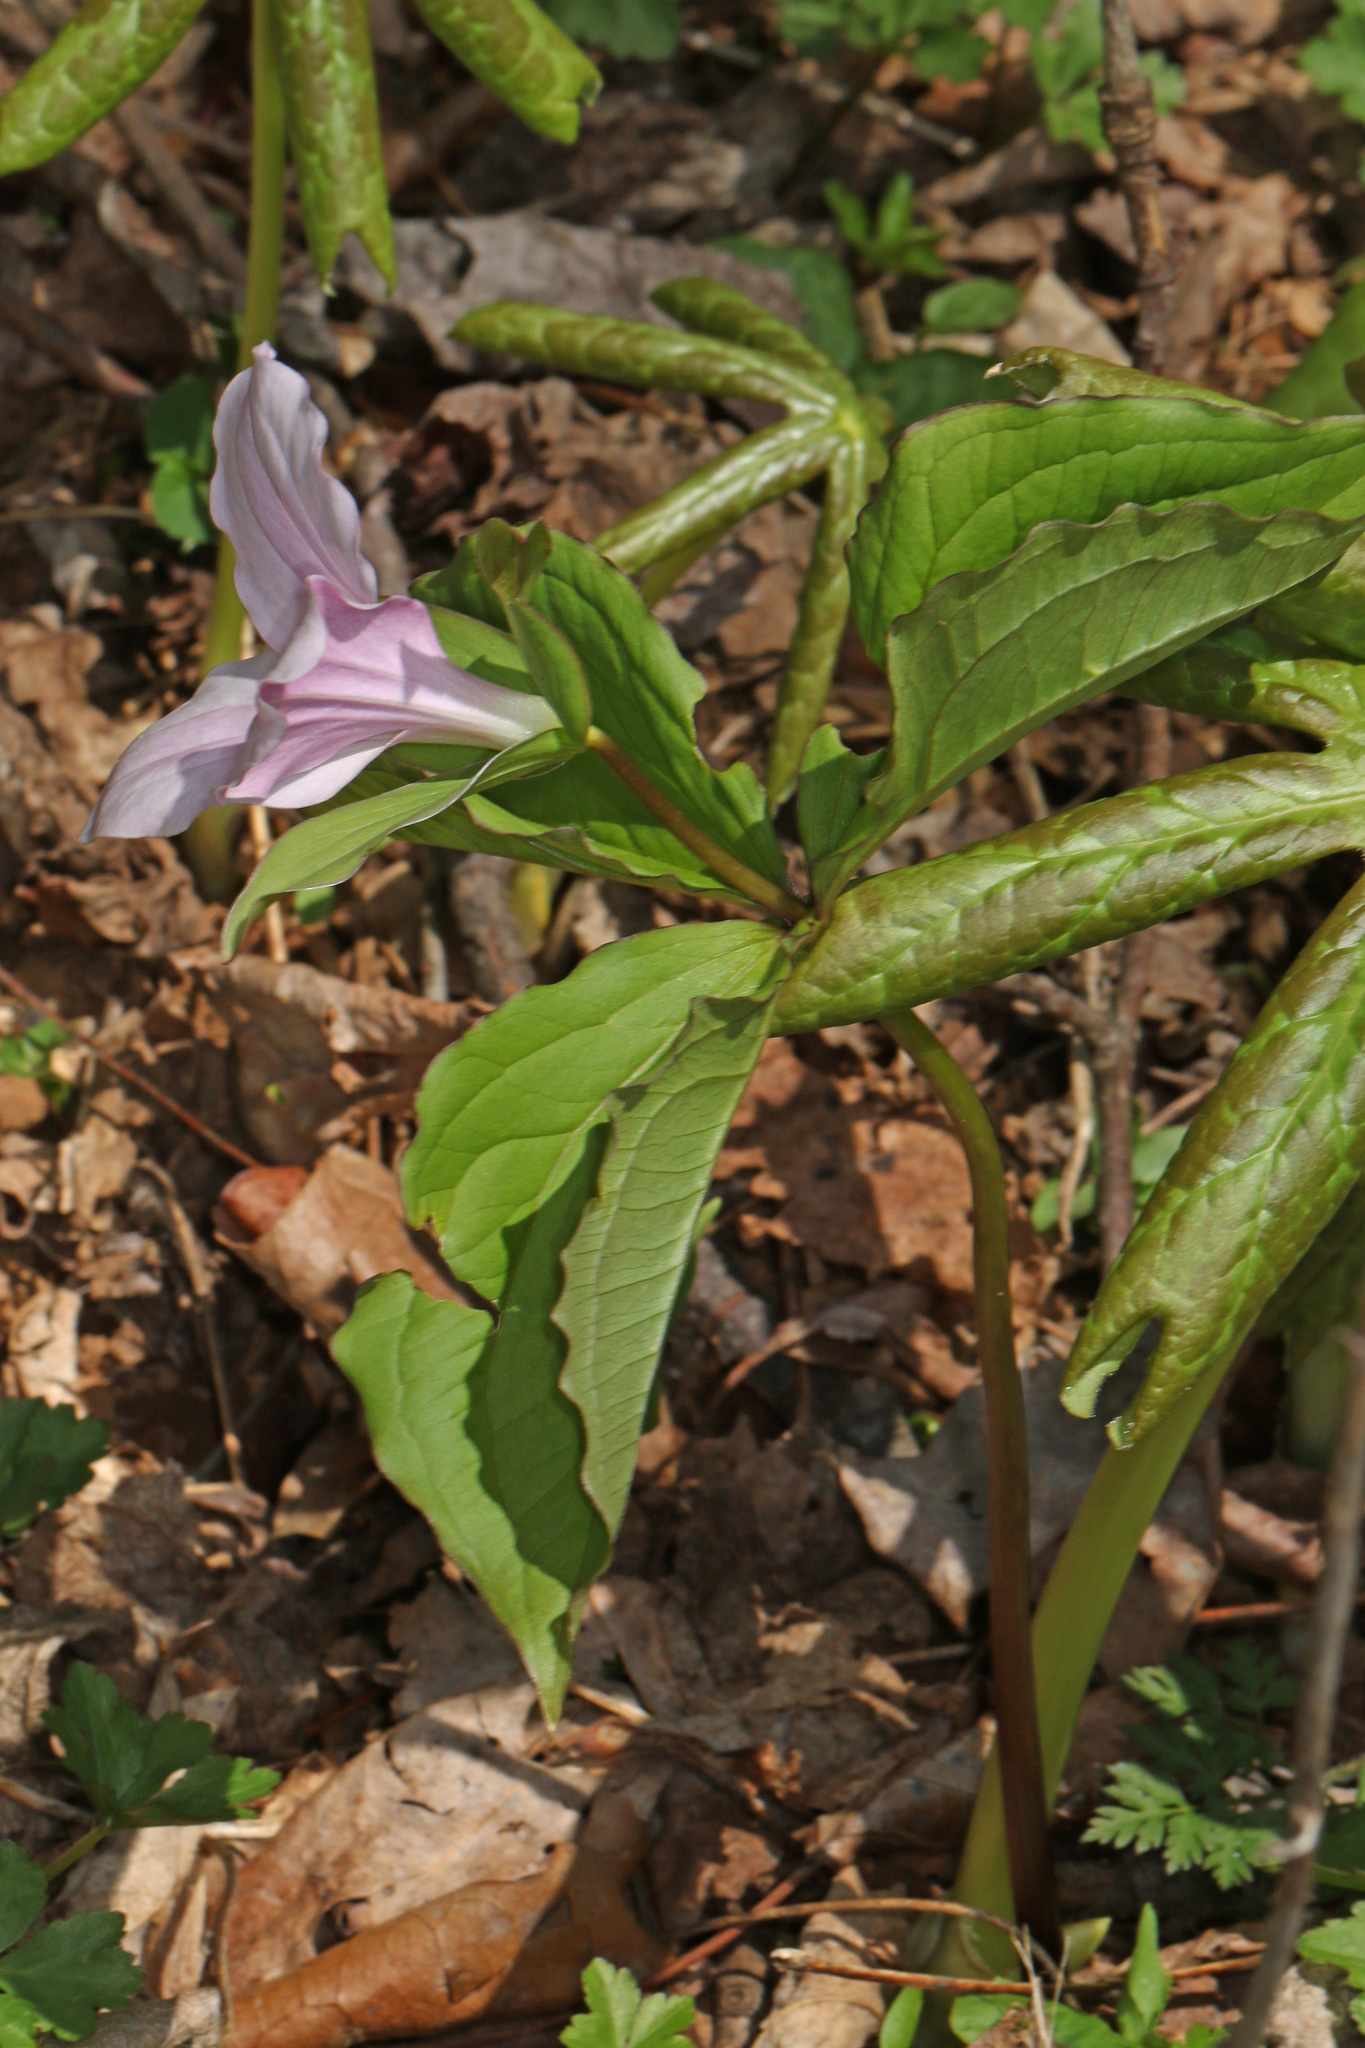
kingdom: Plantae
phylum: Tracheophyta
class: Liliopsida
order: Liliales
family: Melanthiaceae
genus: Trillium
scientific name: Trillium grandiflorum
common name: Great white trillium
